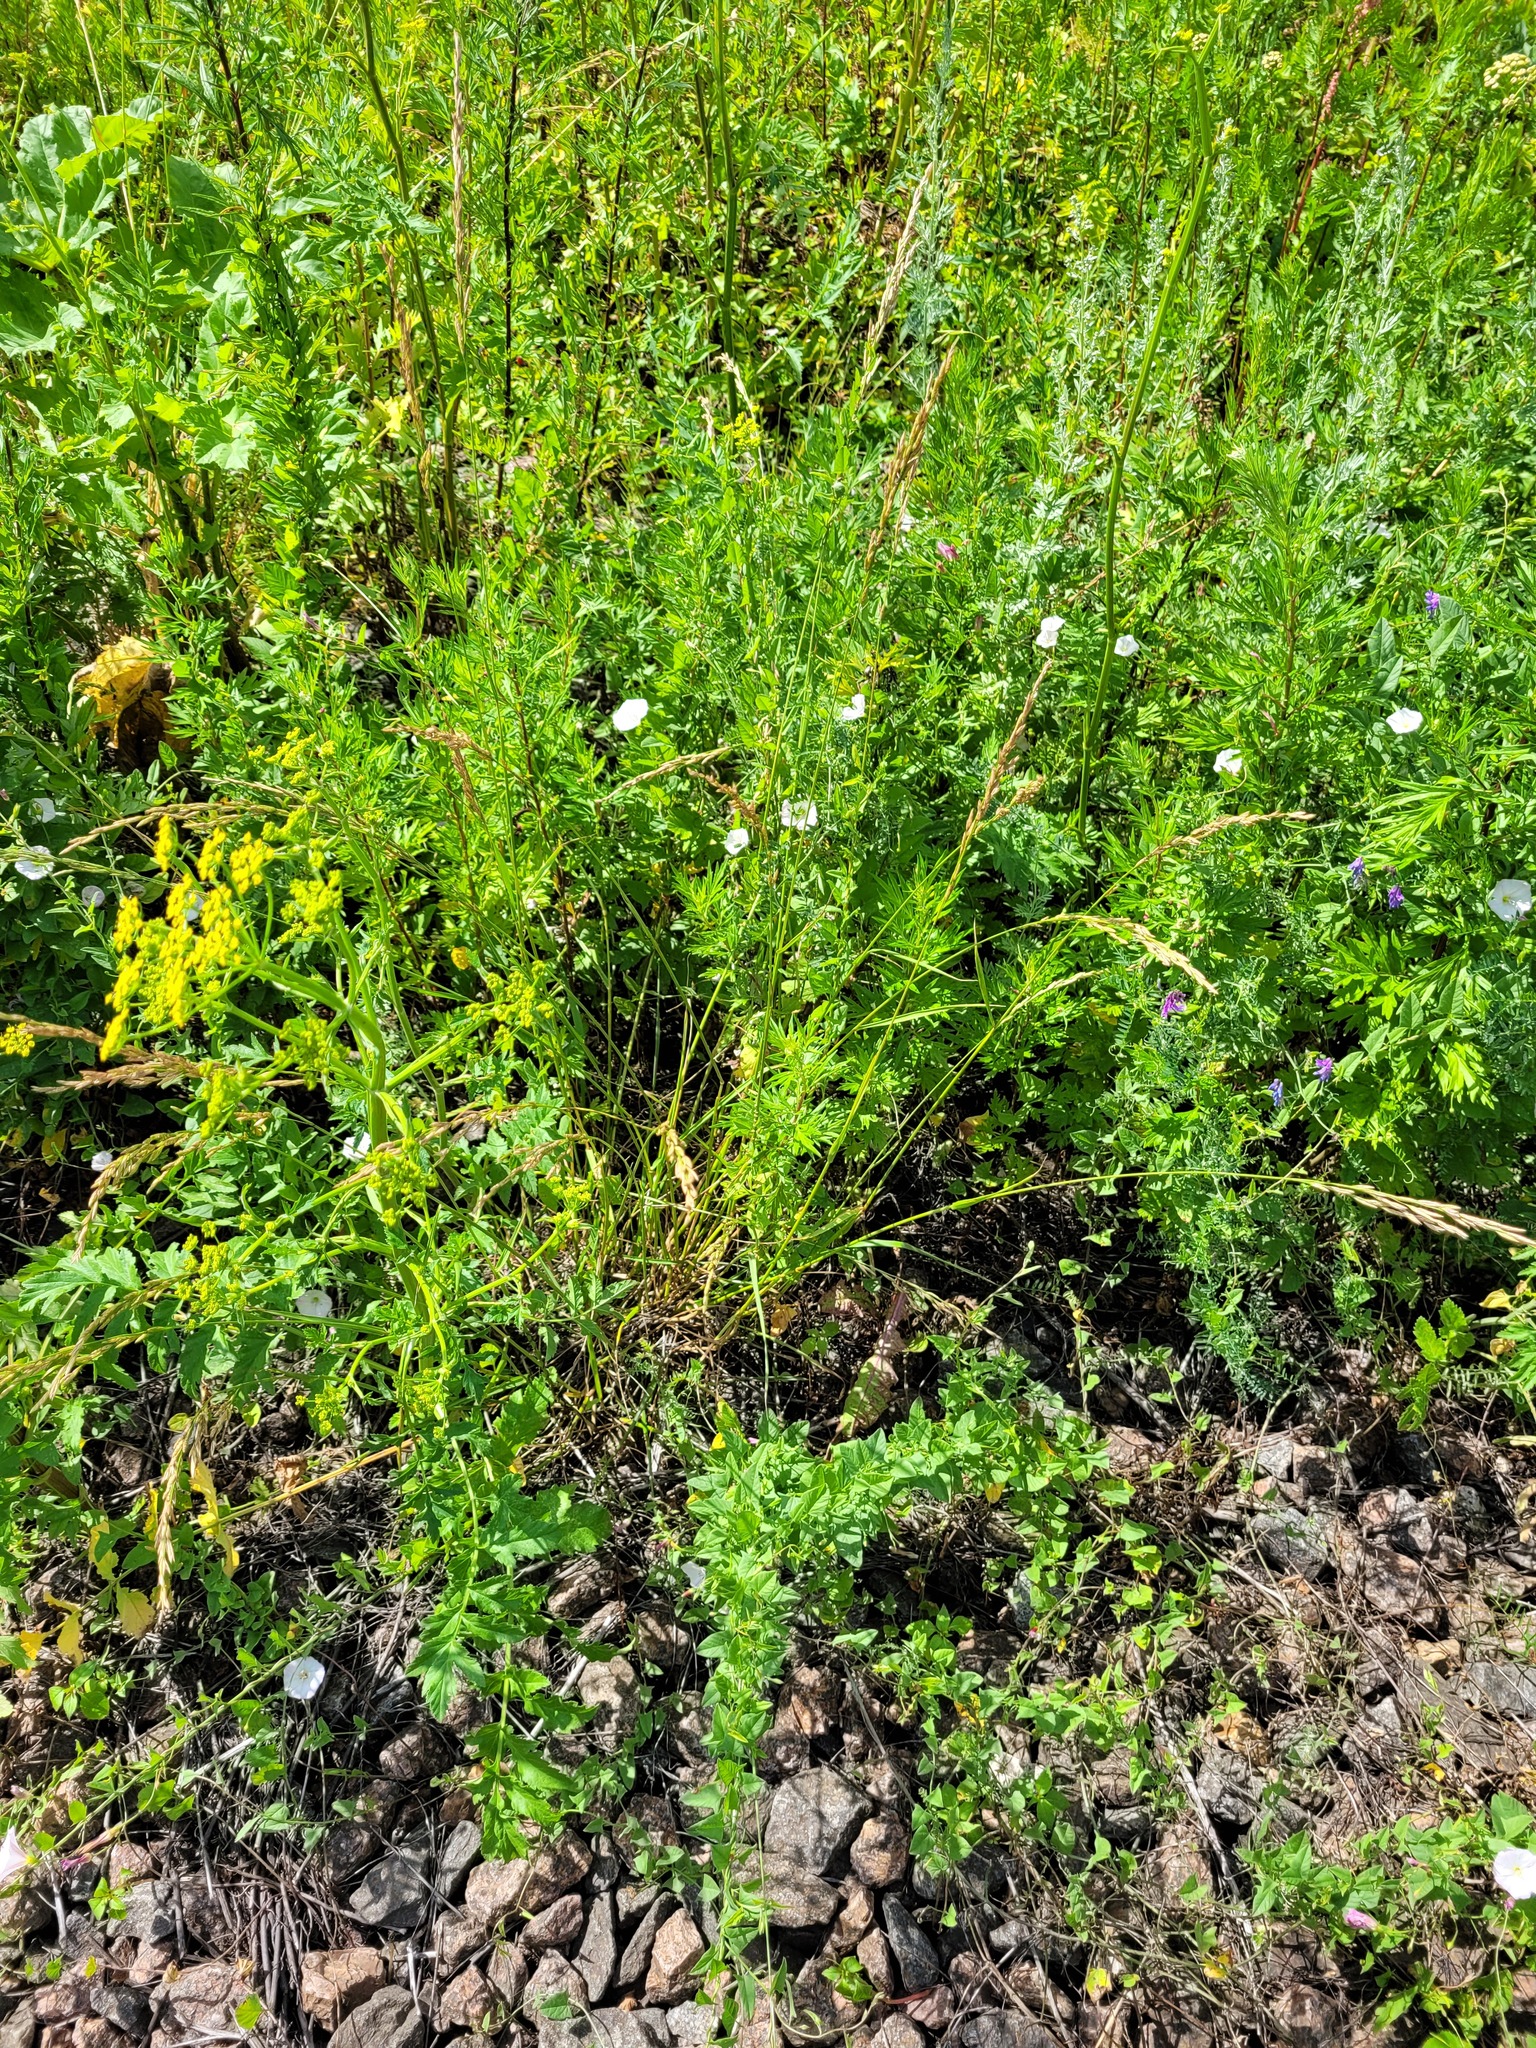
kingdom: Plantae
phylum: Tracheophyta
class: Liliopsida
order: Poales
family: Poaceae
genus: Lolium
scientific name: Lolium arundinaceum
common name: Reed fescue
